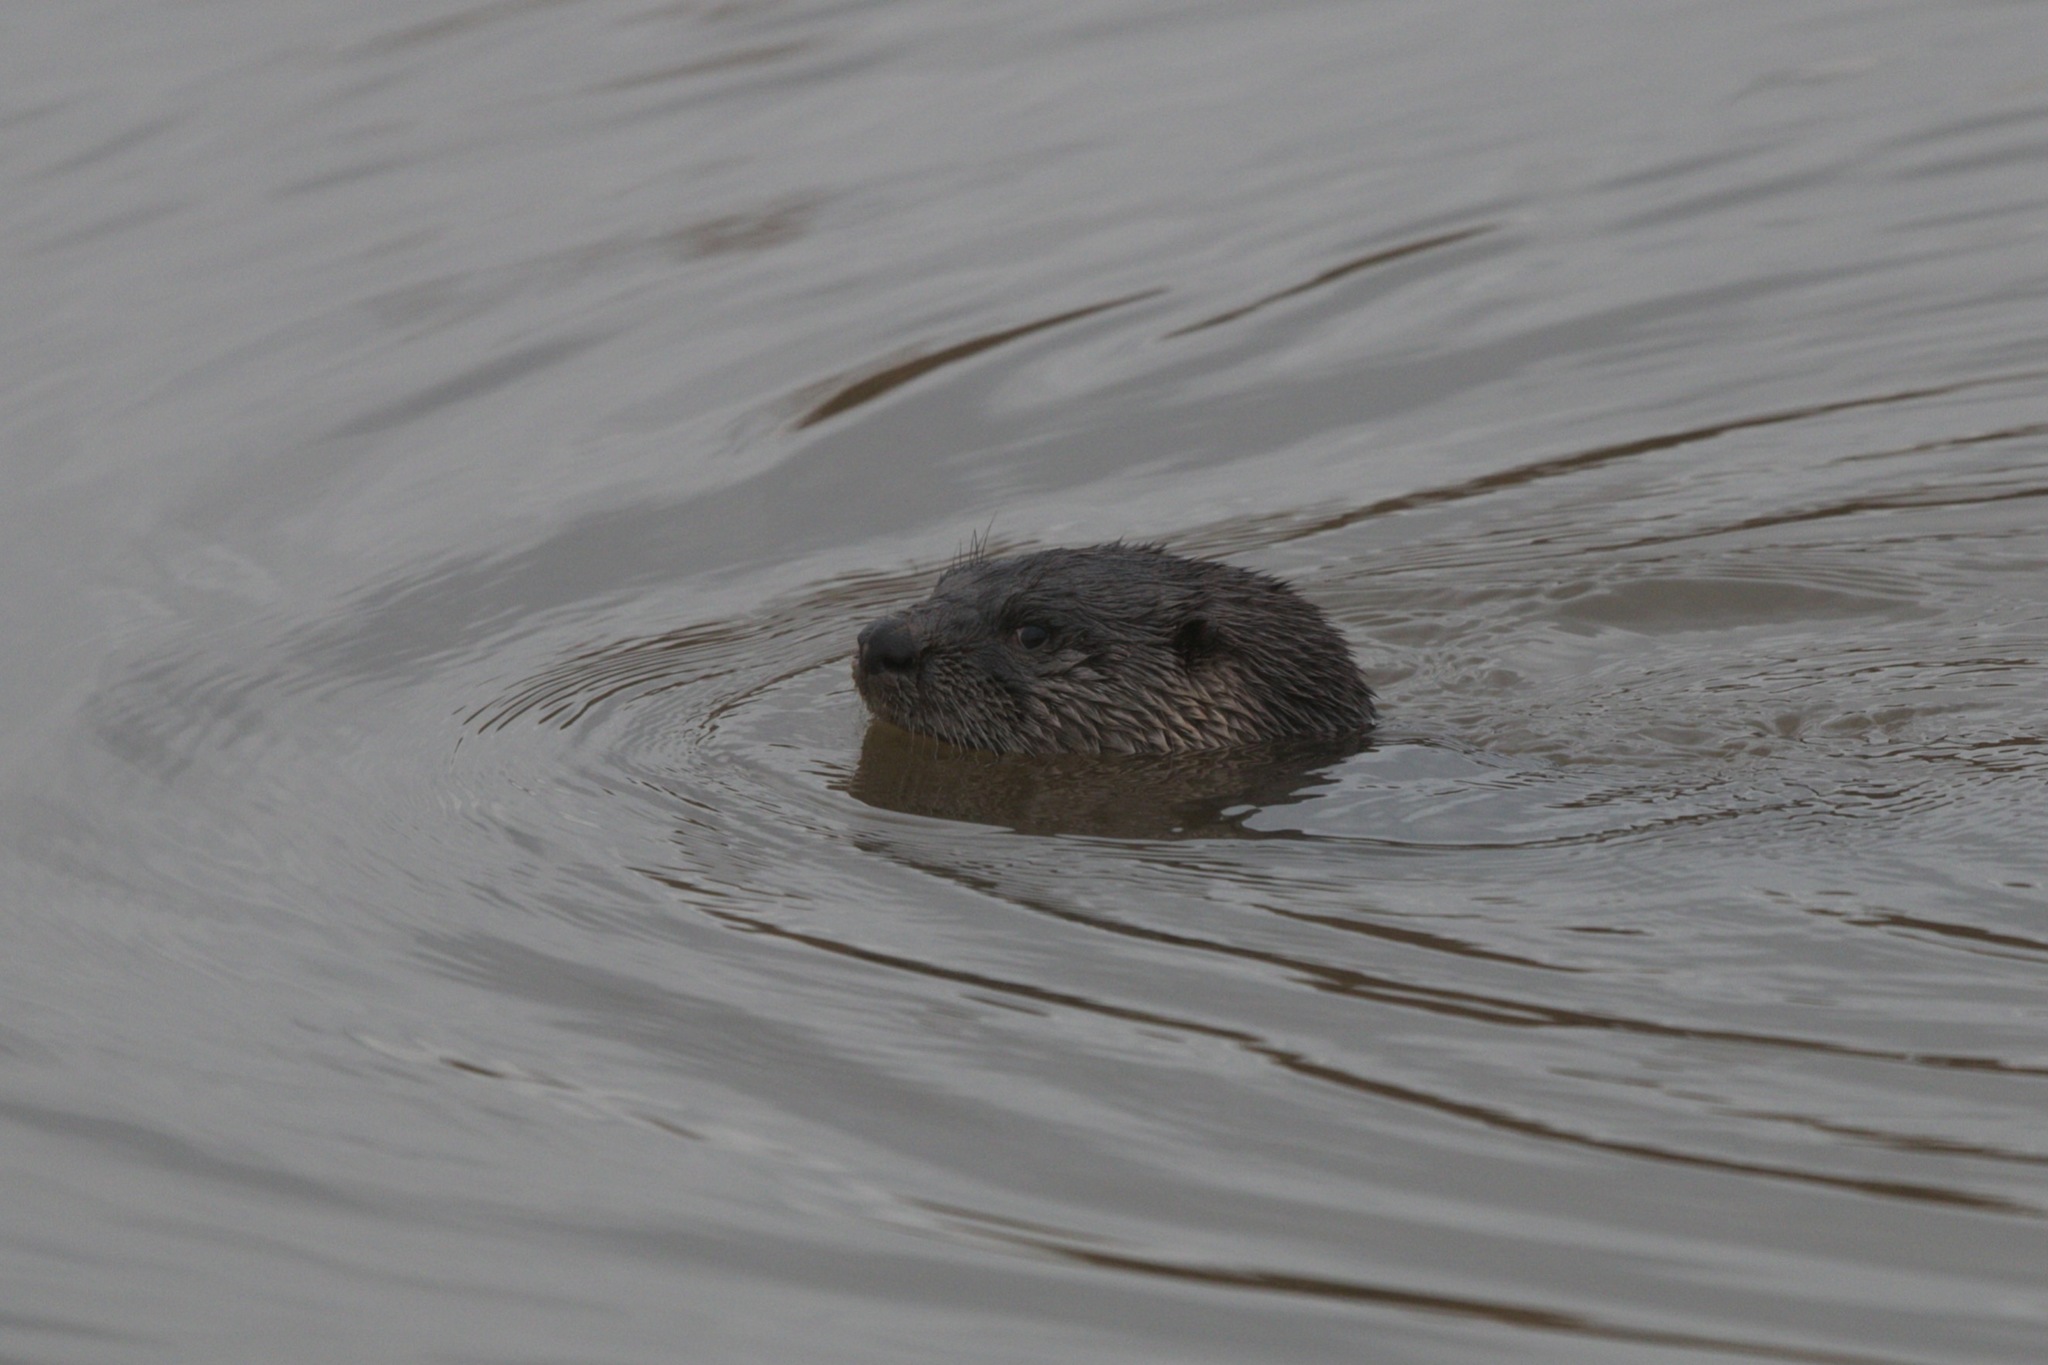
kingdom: Animalia
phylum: Chordata
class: Mammalia
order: Carnivora
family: Mustelidae
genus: Lontra
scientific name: Lontra canadensis
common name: North american river otter
